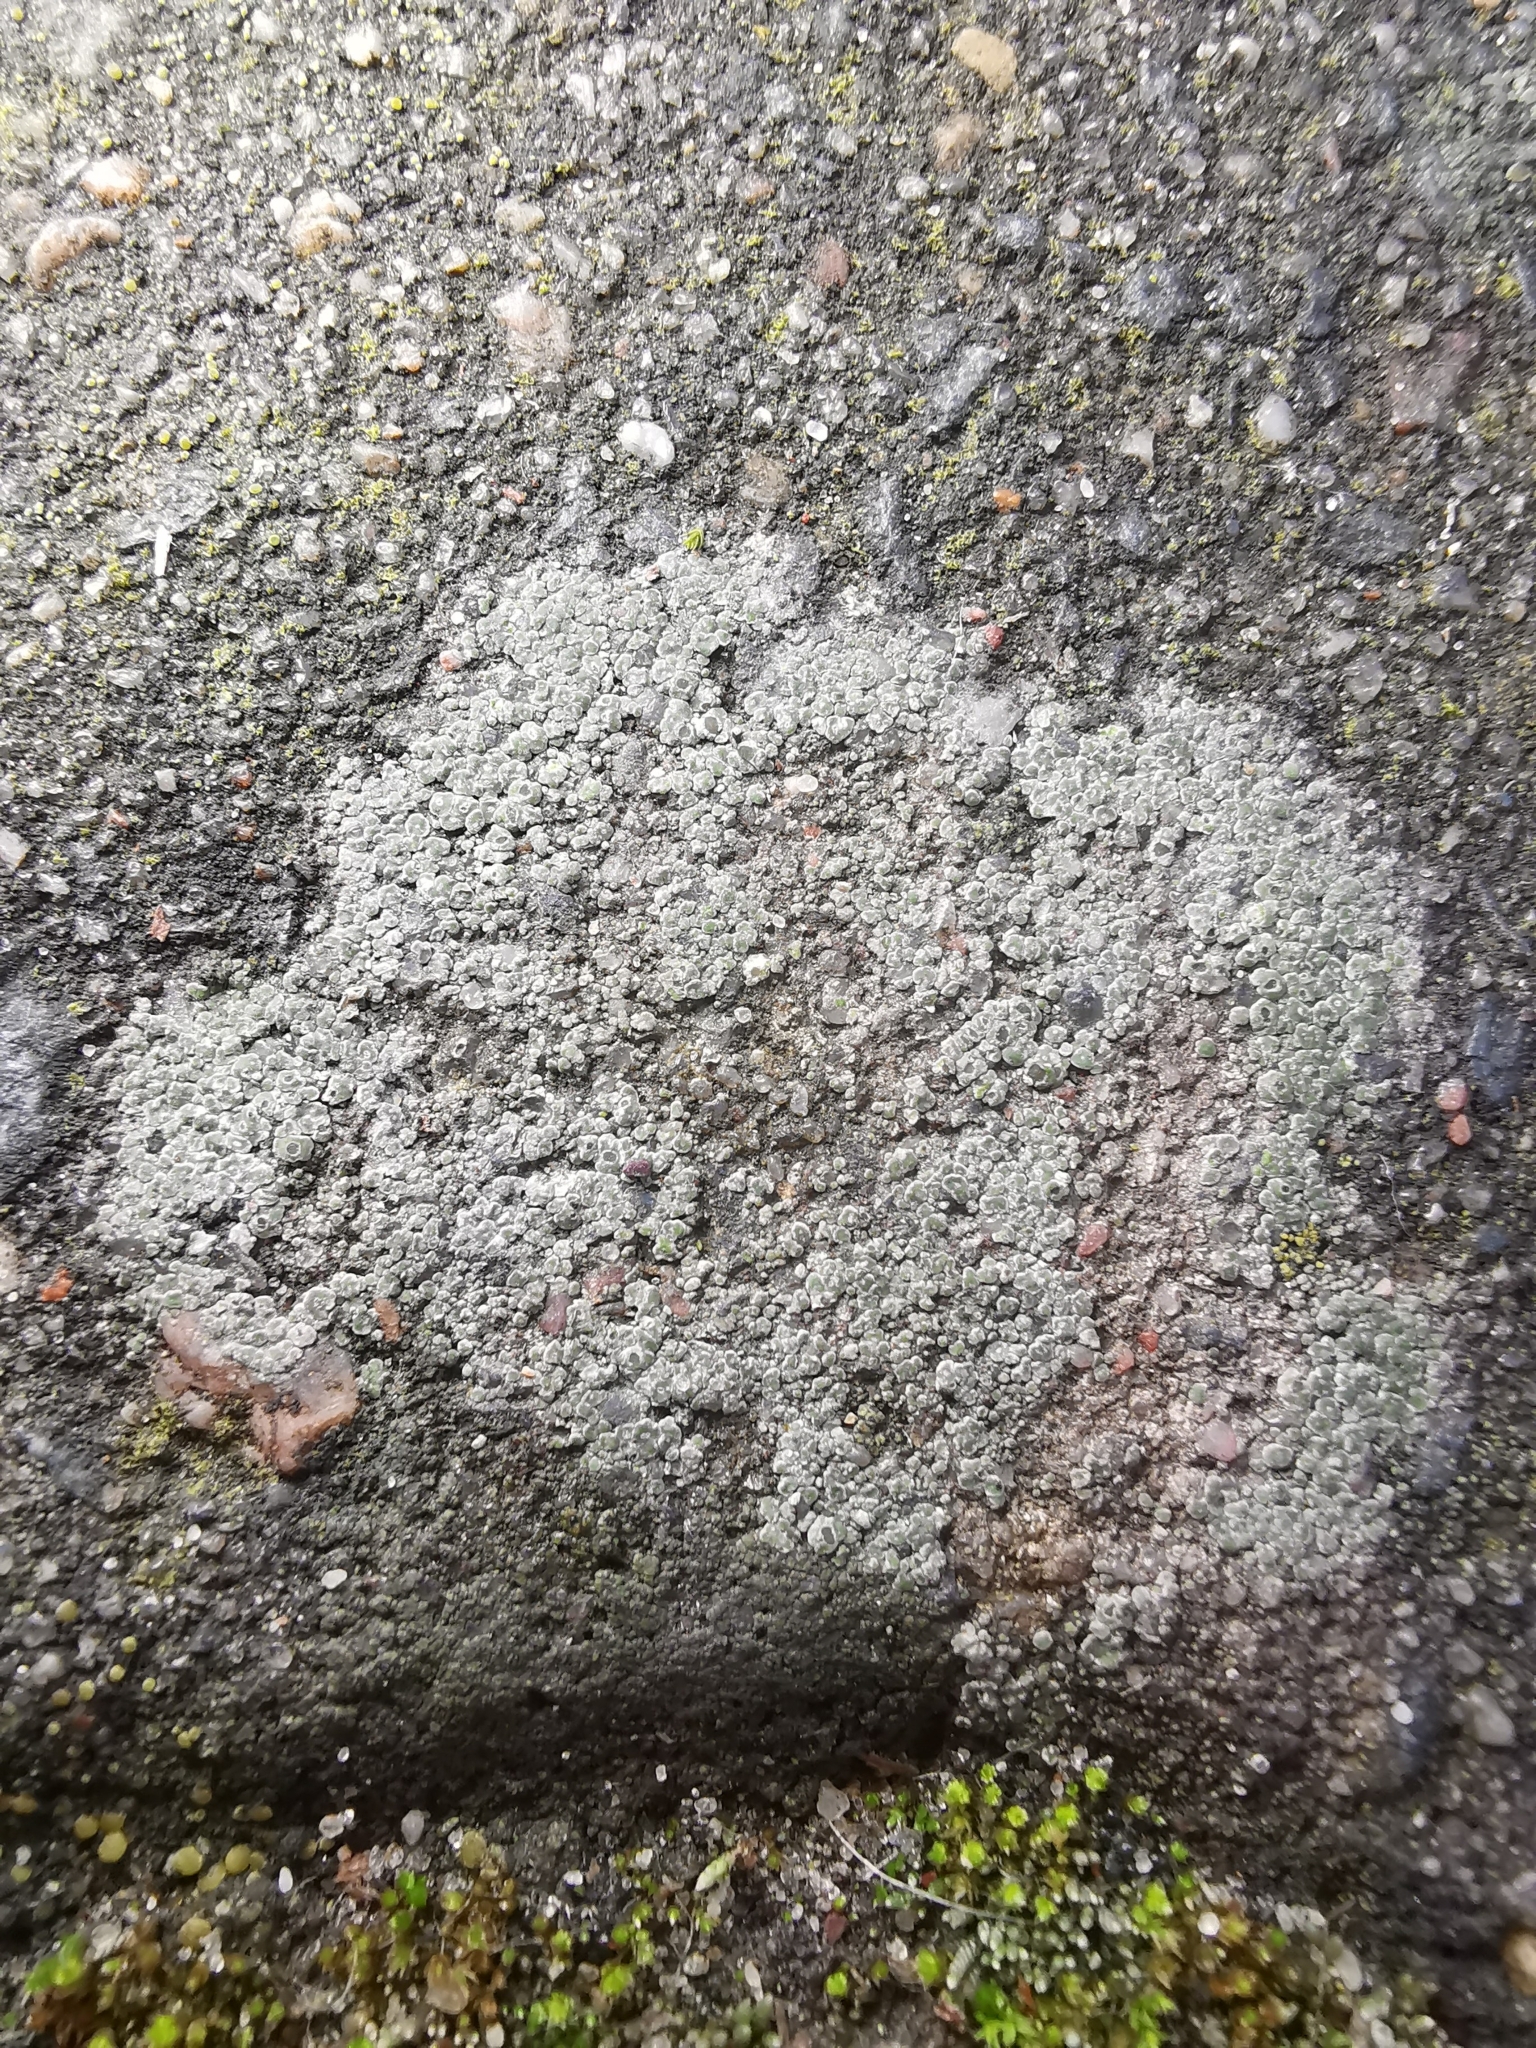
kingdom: Fungi
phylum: Ascomycota
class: Lecanoromycetes
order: Pertusariales
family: Megasporaceae
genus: Circinaria
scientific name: Circinaria contorta
